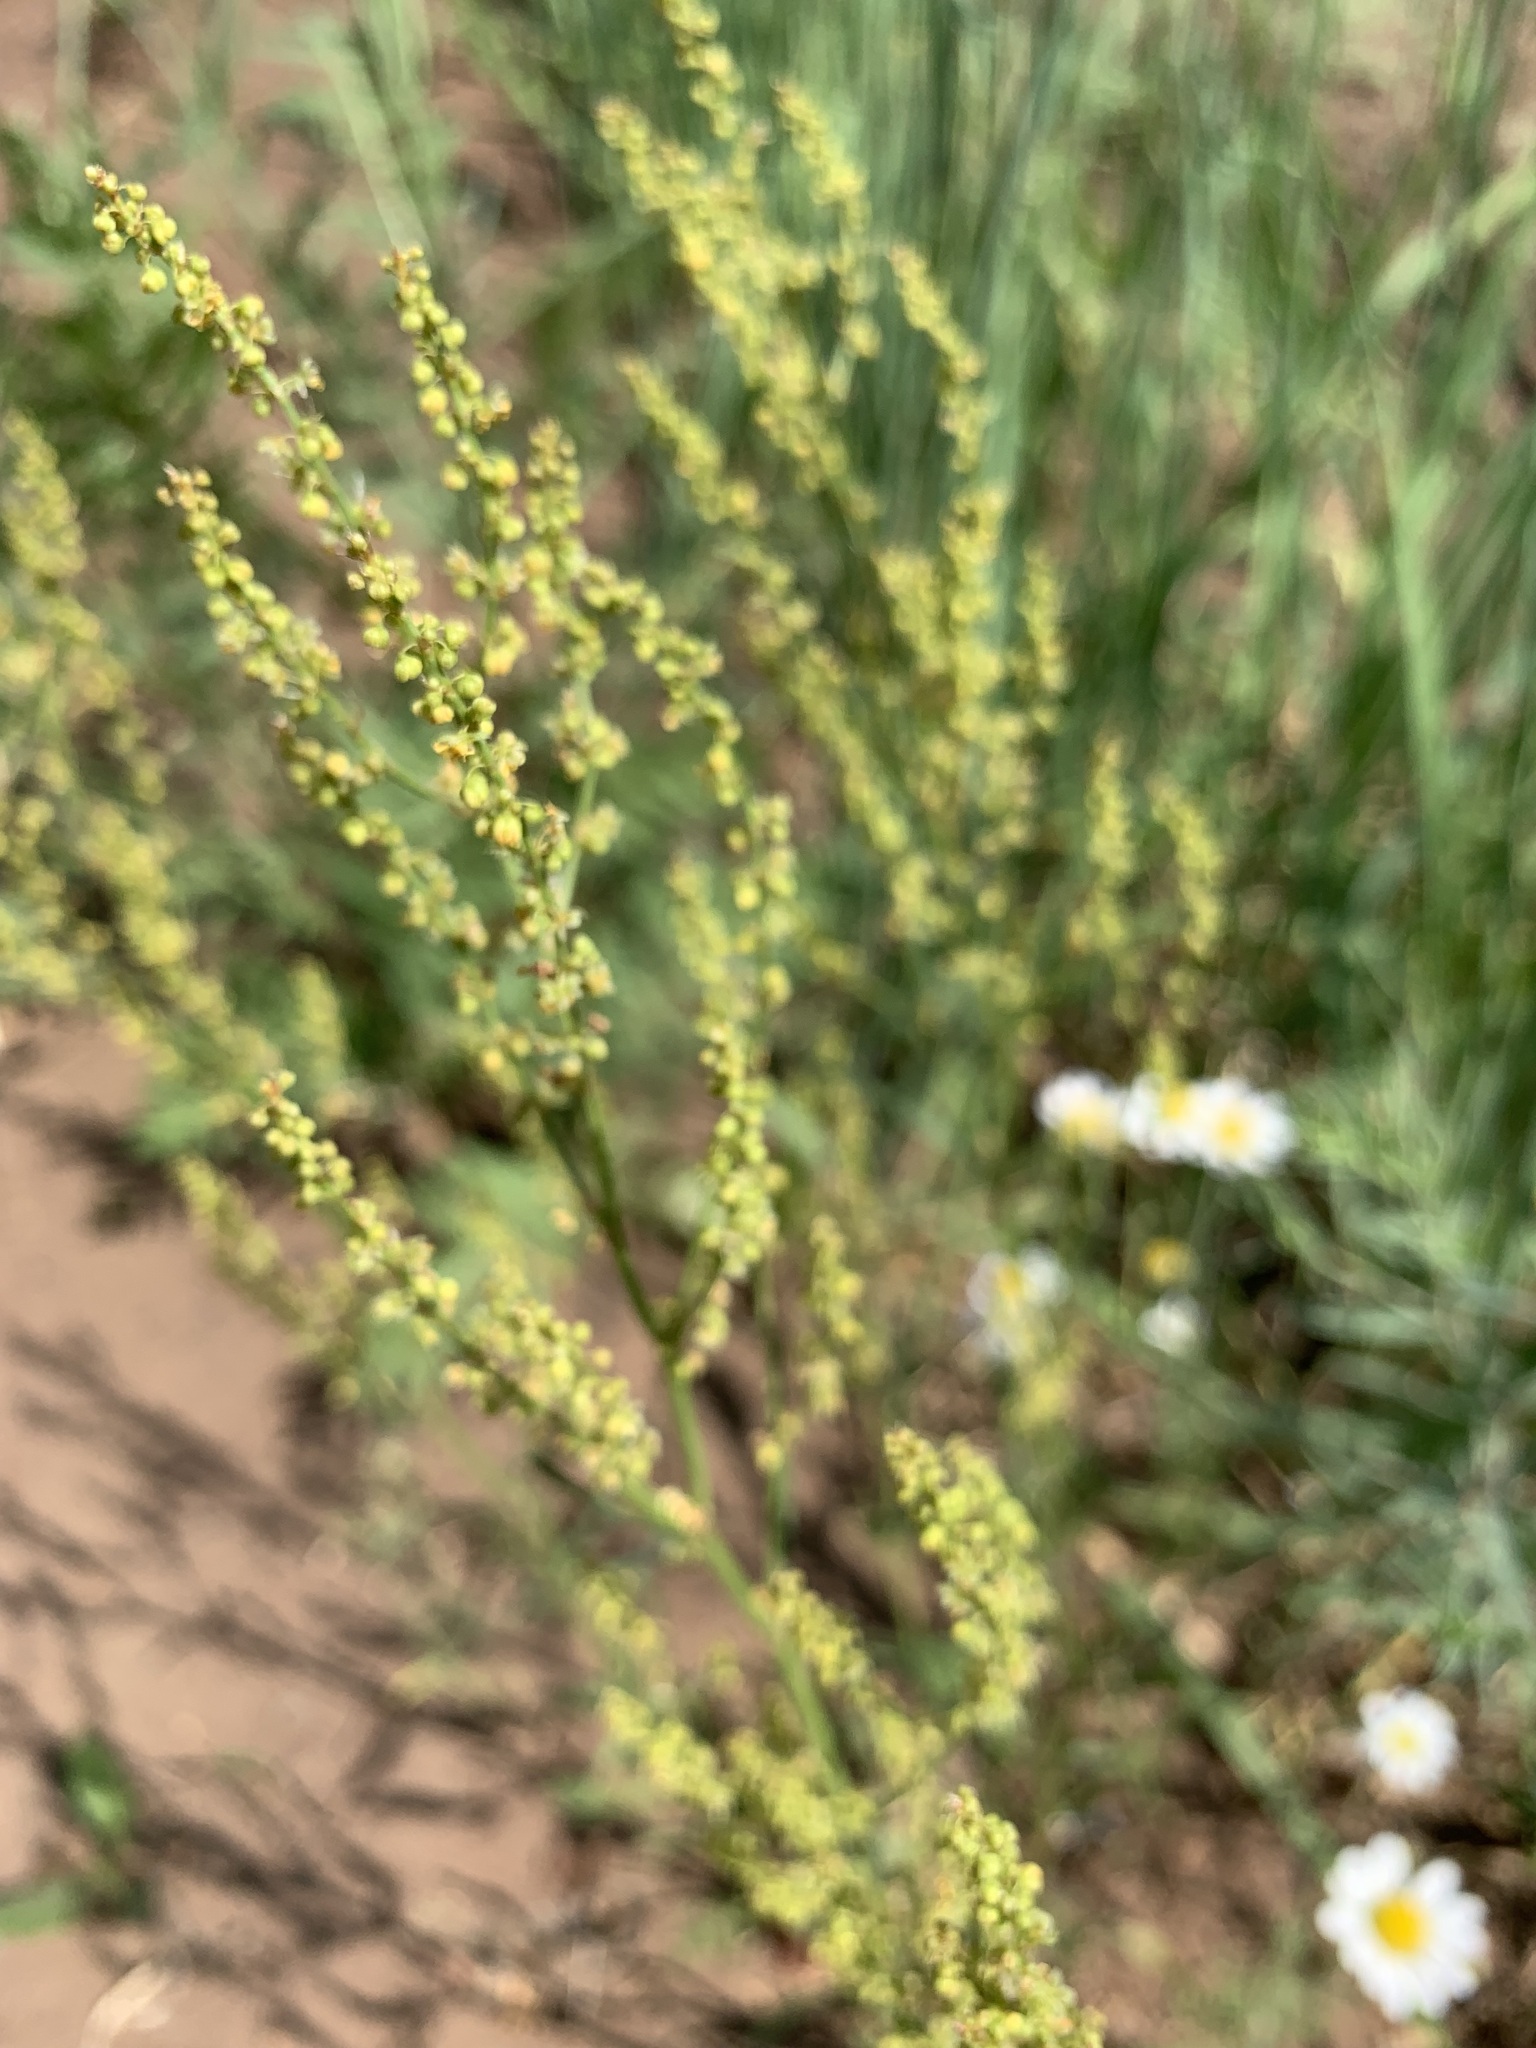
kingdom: Plantae
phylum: Tracheophyta
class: Magnoliopsida
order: Caryophyllales
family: Polygonaceae
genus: Rumex
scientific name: Rumex acetosella
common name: Common sheep sorrel
